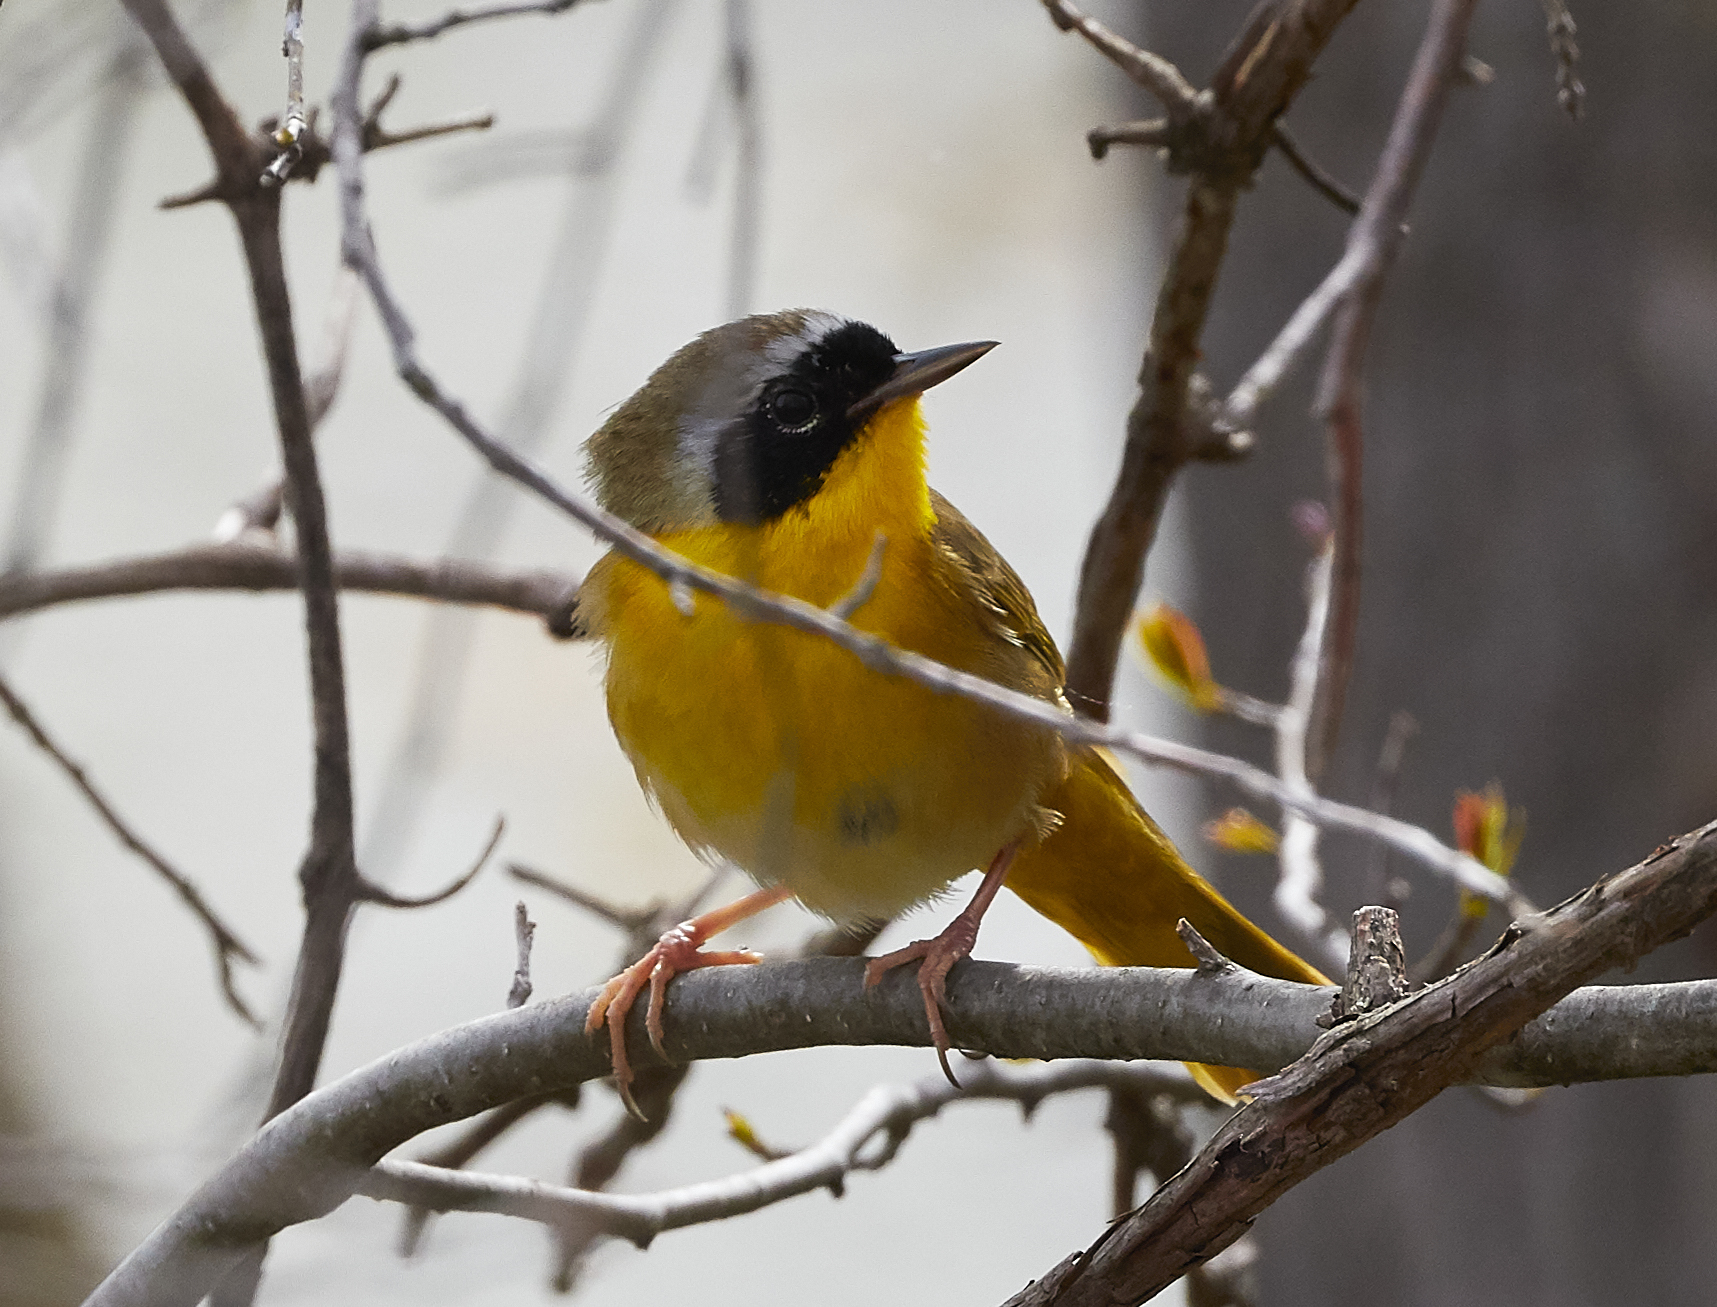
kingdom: Animalia
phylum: Chordata
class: Aves
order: Passeriformes
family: Parulidae
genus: Geothlypis
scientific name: Geothlypis trichas
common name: Common yellowthroat
